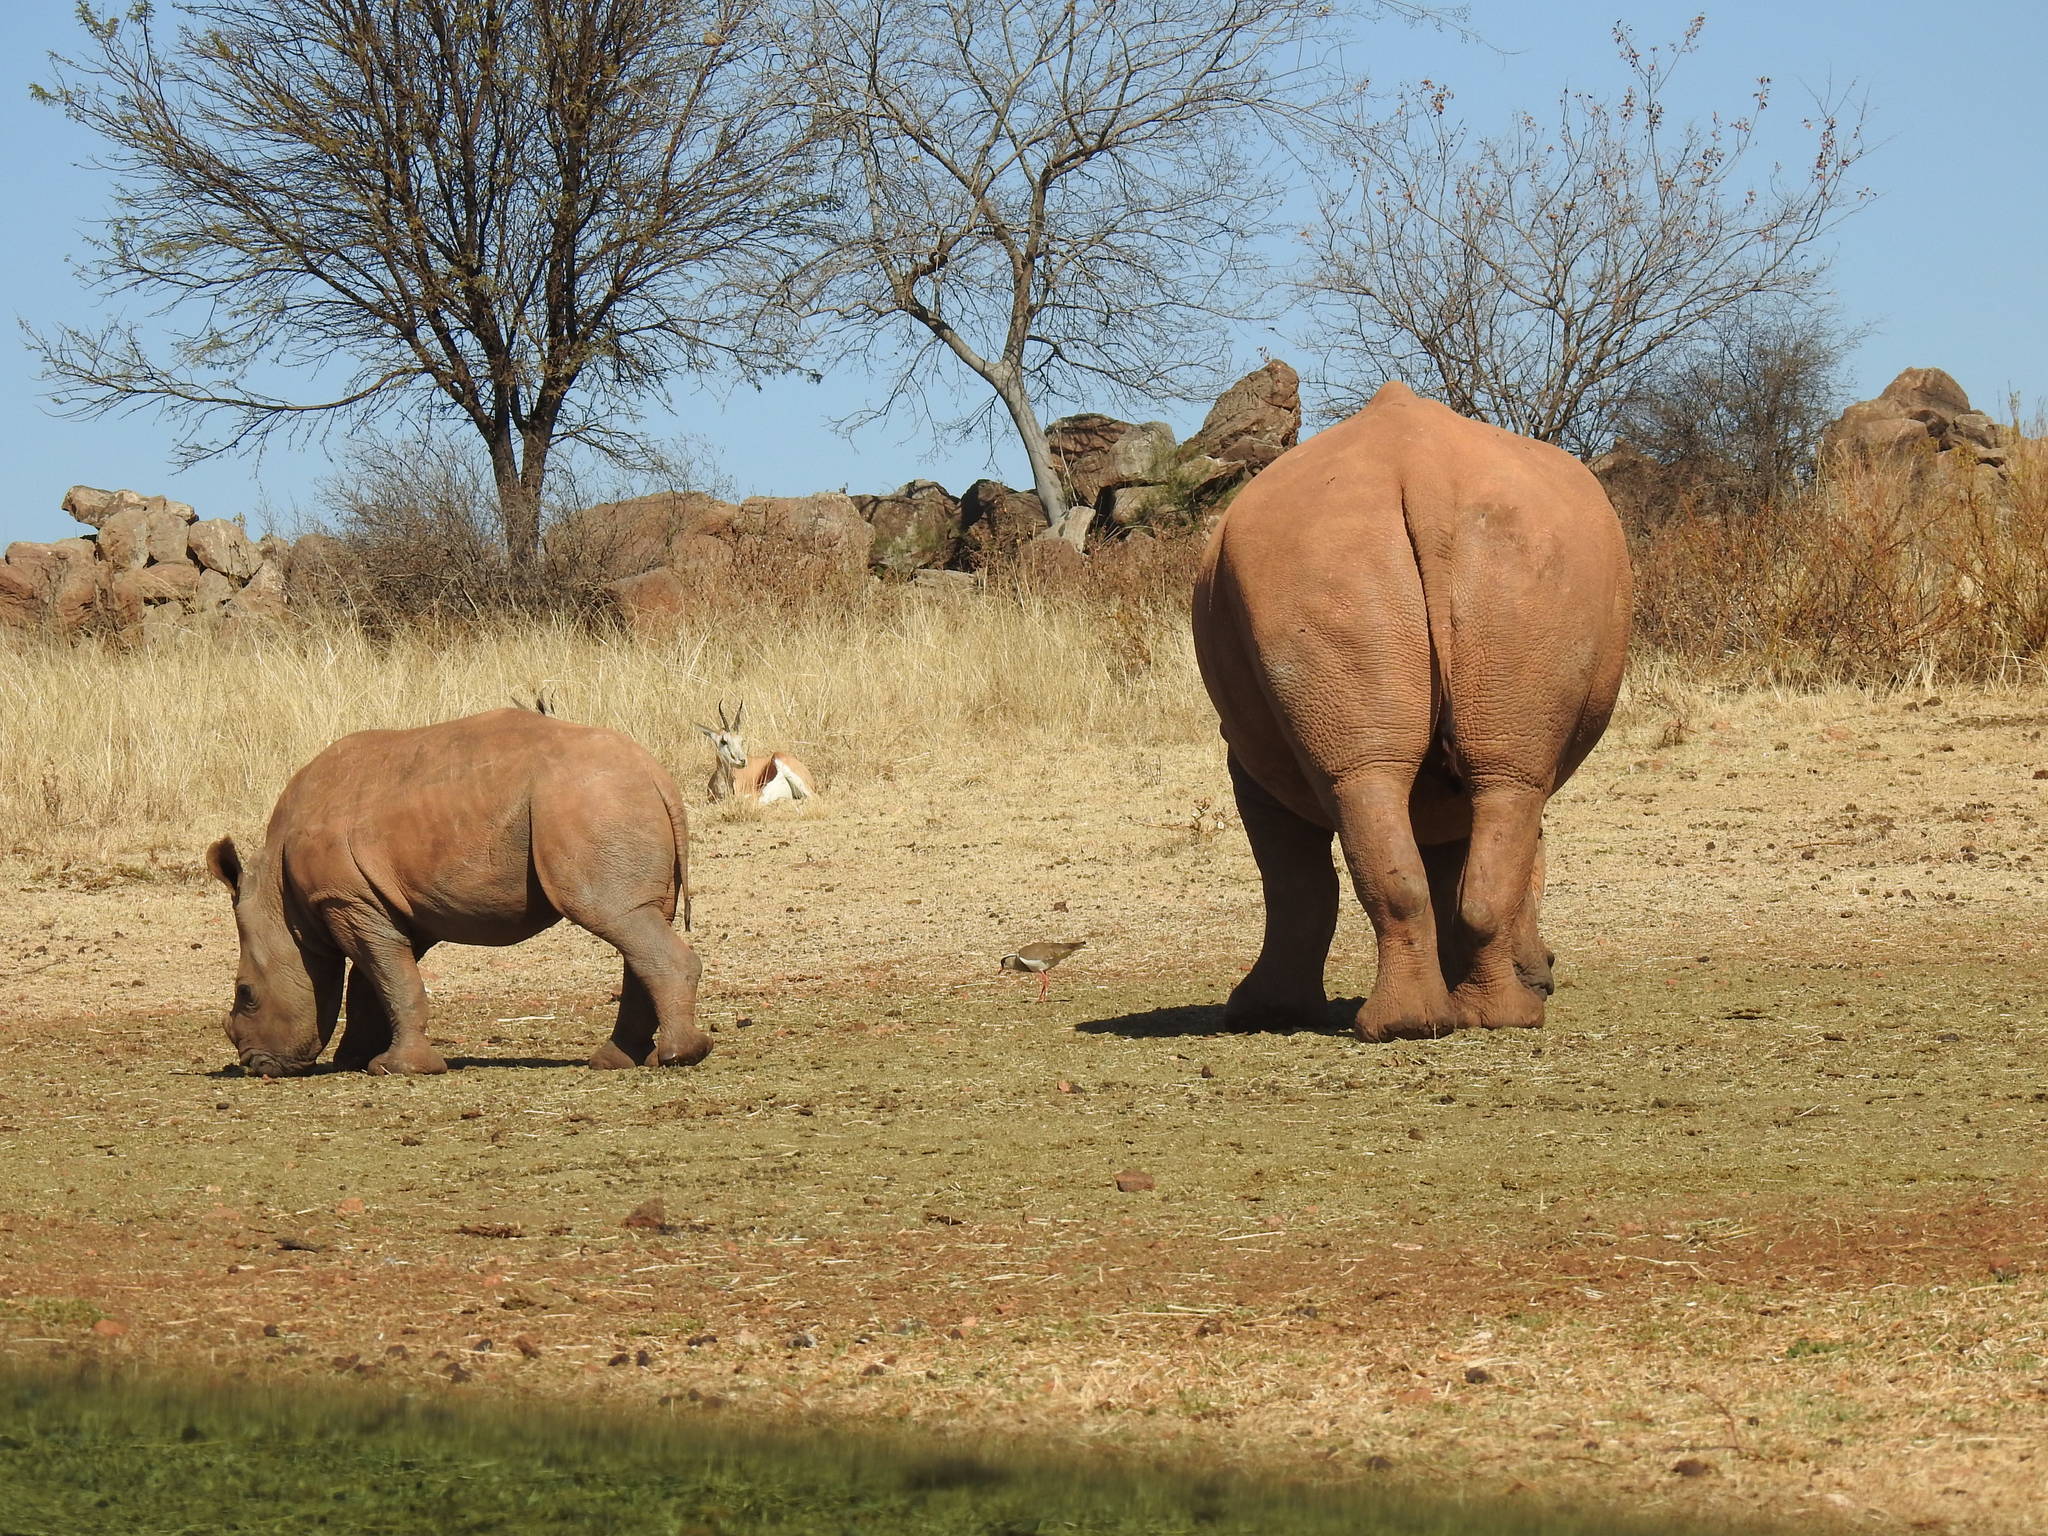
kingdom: Animalia
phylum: Chordata
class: Mammalia
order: Perissodactyla
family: Rhinocerotidae
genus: Ceratotherium
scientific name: Ceratotherium simum
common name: White rhinoceros
